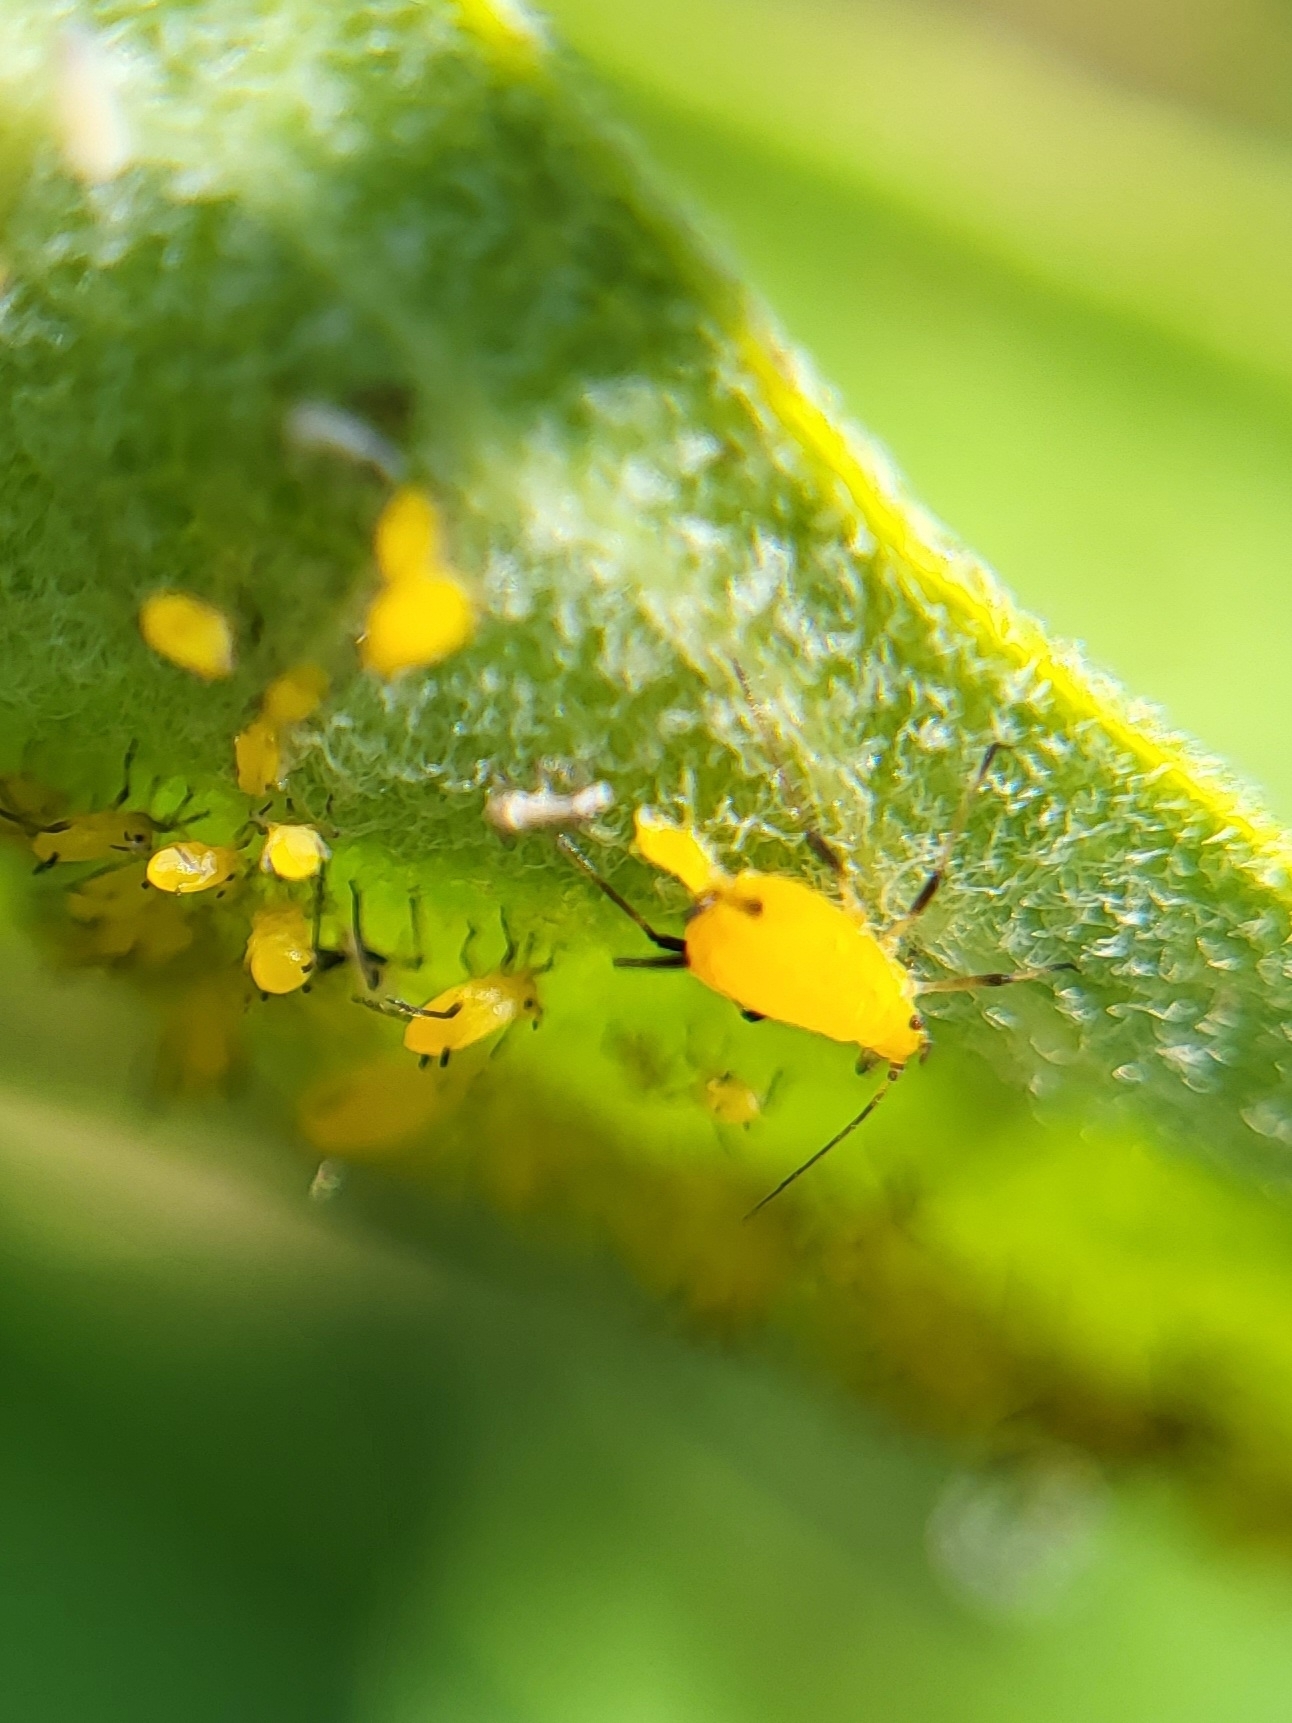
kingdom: Animalia
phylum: Arthropoda
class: Insecta
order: Hemiptera
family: Aphididae
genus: Aphis
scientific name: Aphis nerii
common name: Oleander aphid
